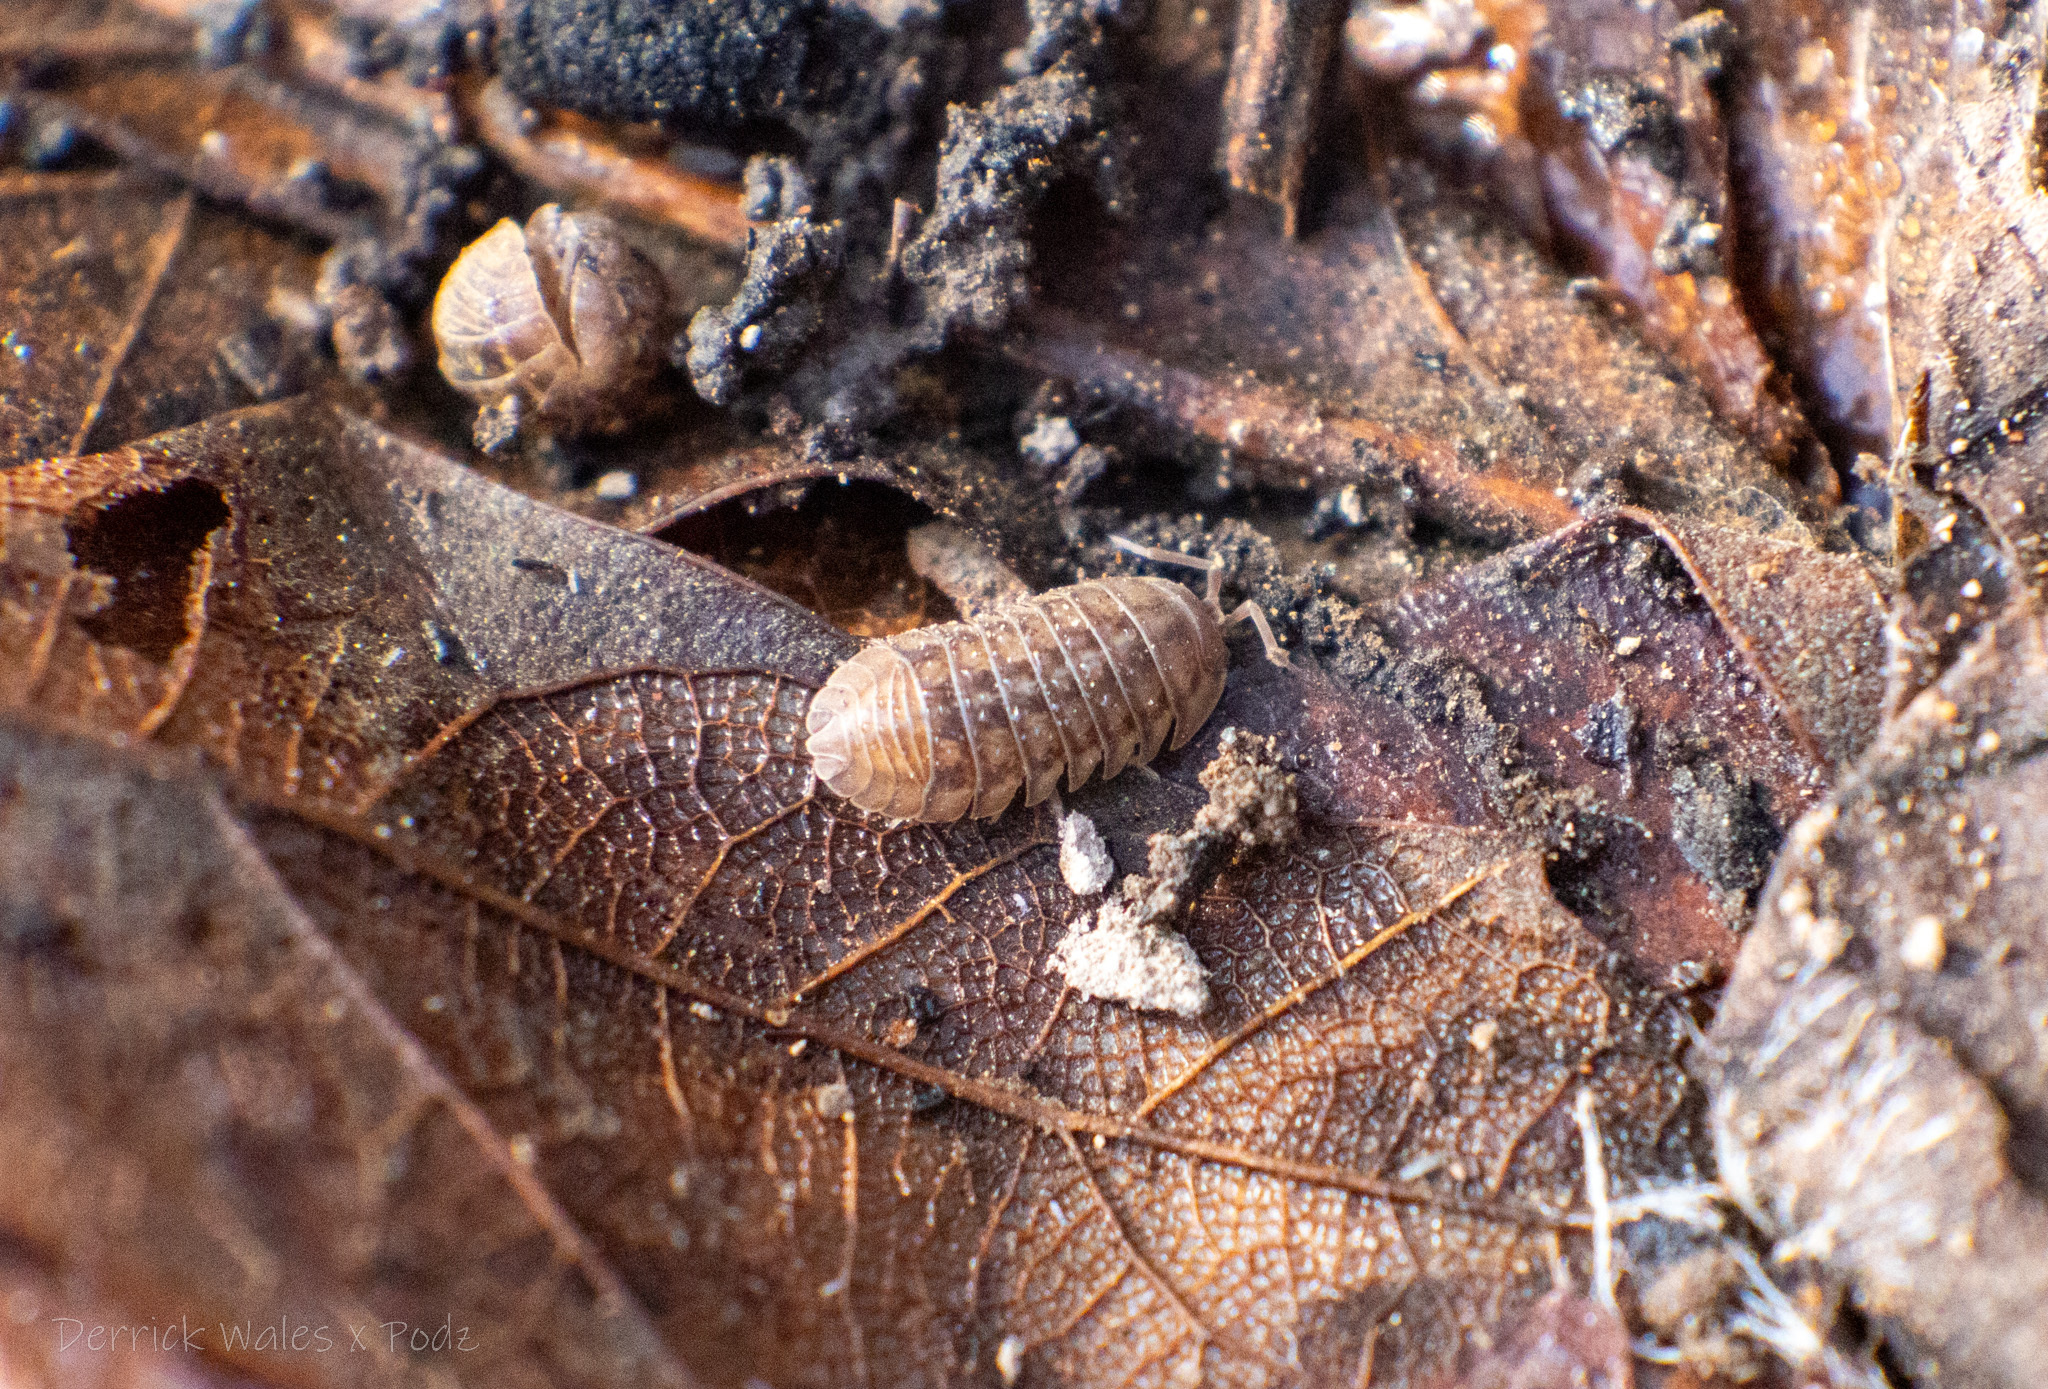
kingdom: Animalia
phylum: Arthropoda
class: Malacostraca
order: Isopoda
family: Armadillidiidae
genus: Armadillidium
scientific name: Armadillidium nasatum
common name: Isopod
